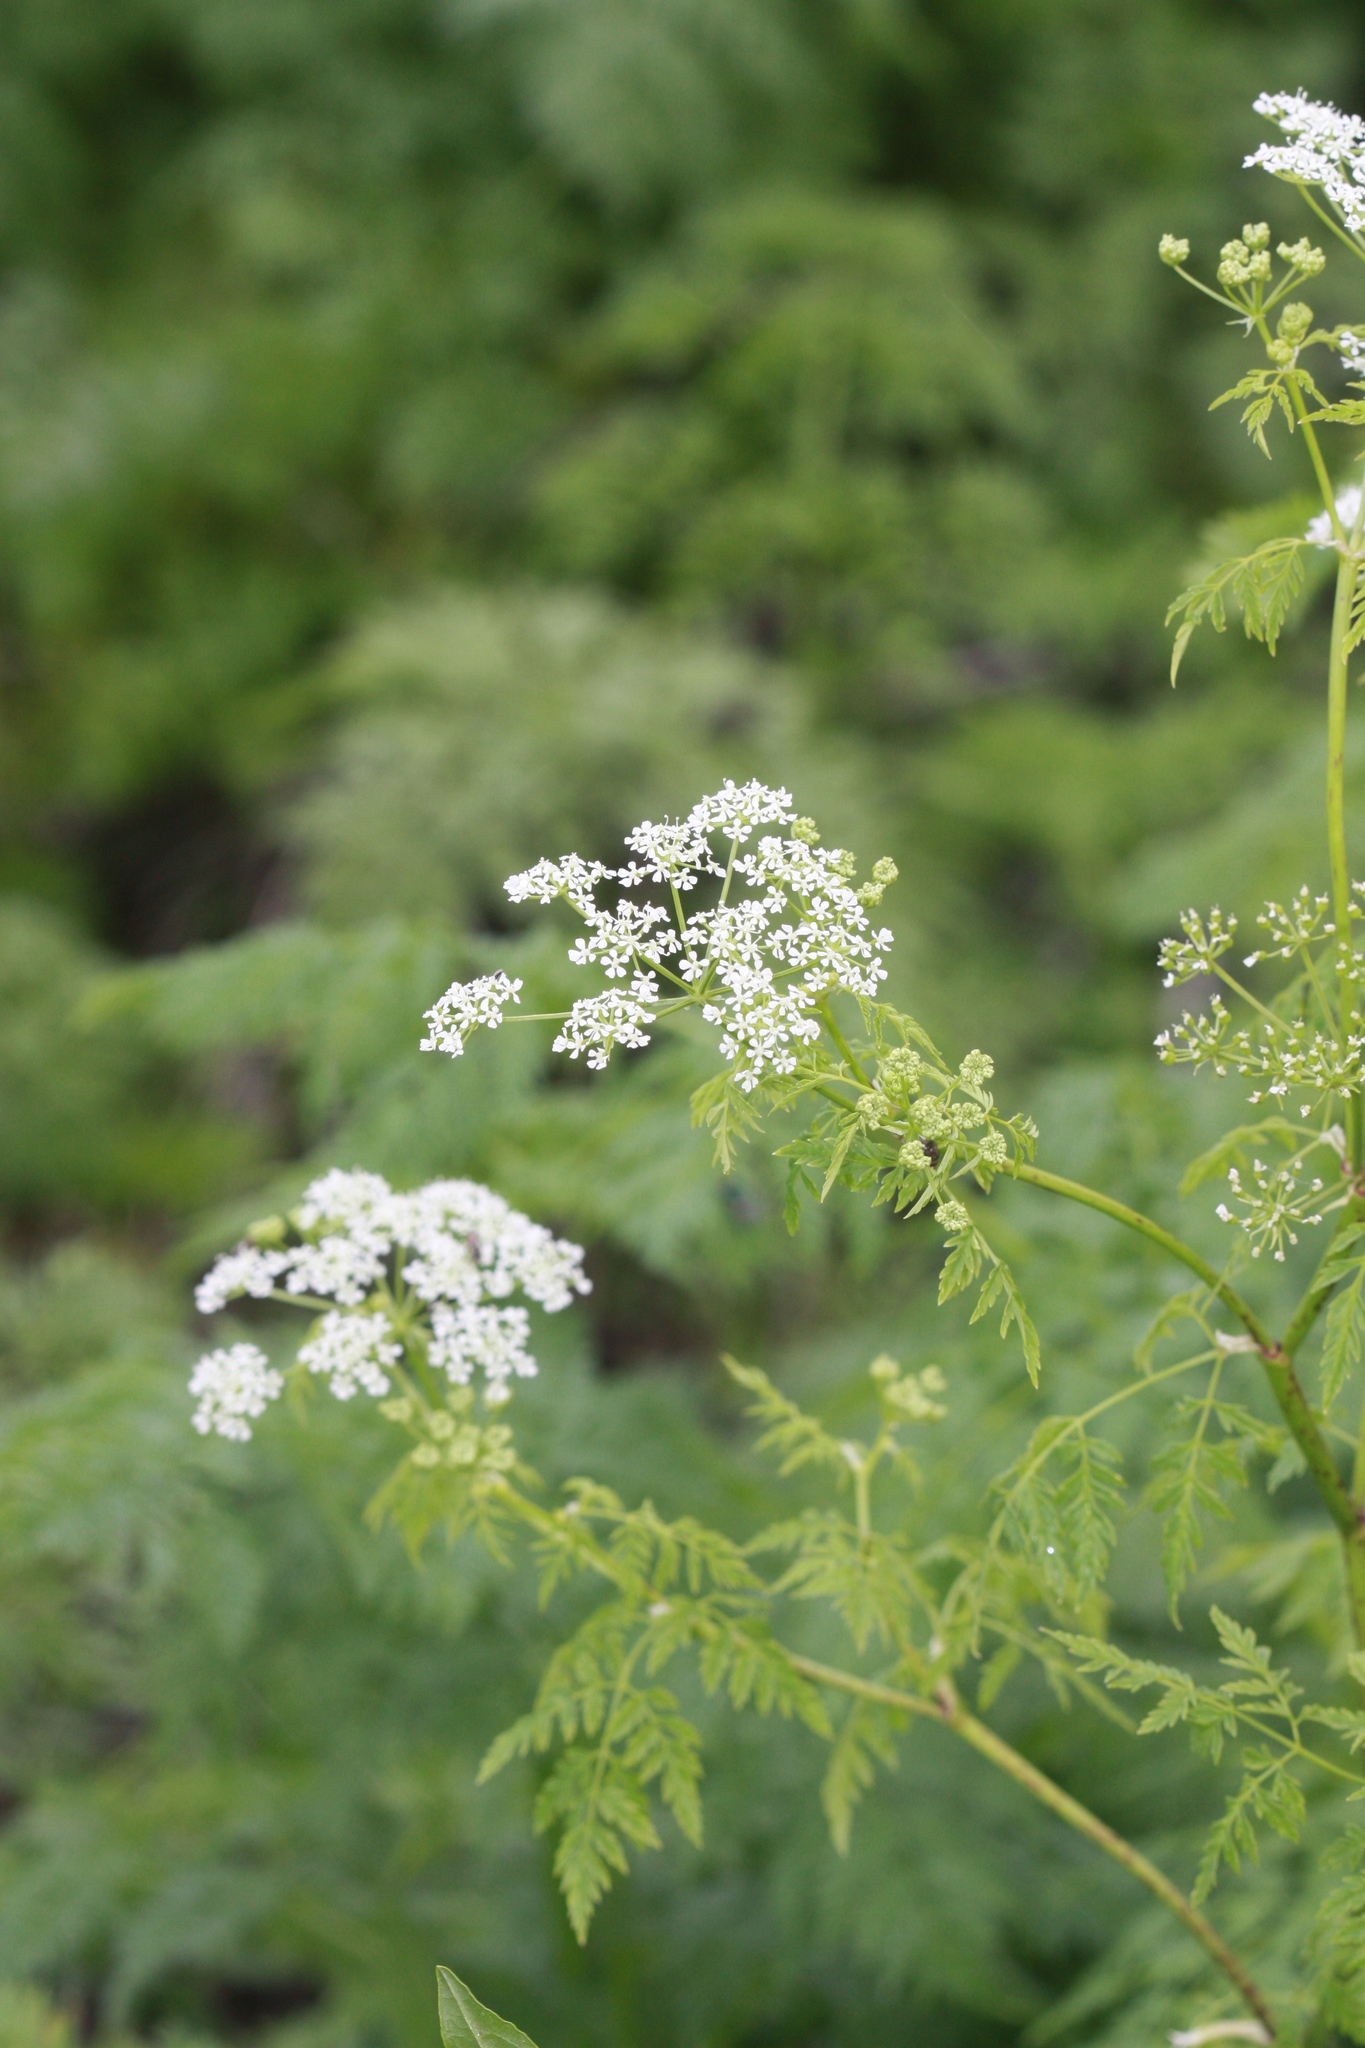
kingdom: Plantae
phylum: Tracheophyta
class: Magnoliopsida
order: Apiales
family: Apiaceae
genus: Conium
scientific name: Conium maculatum
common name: Hemlock
